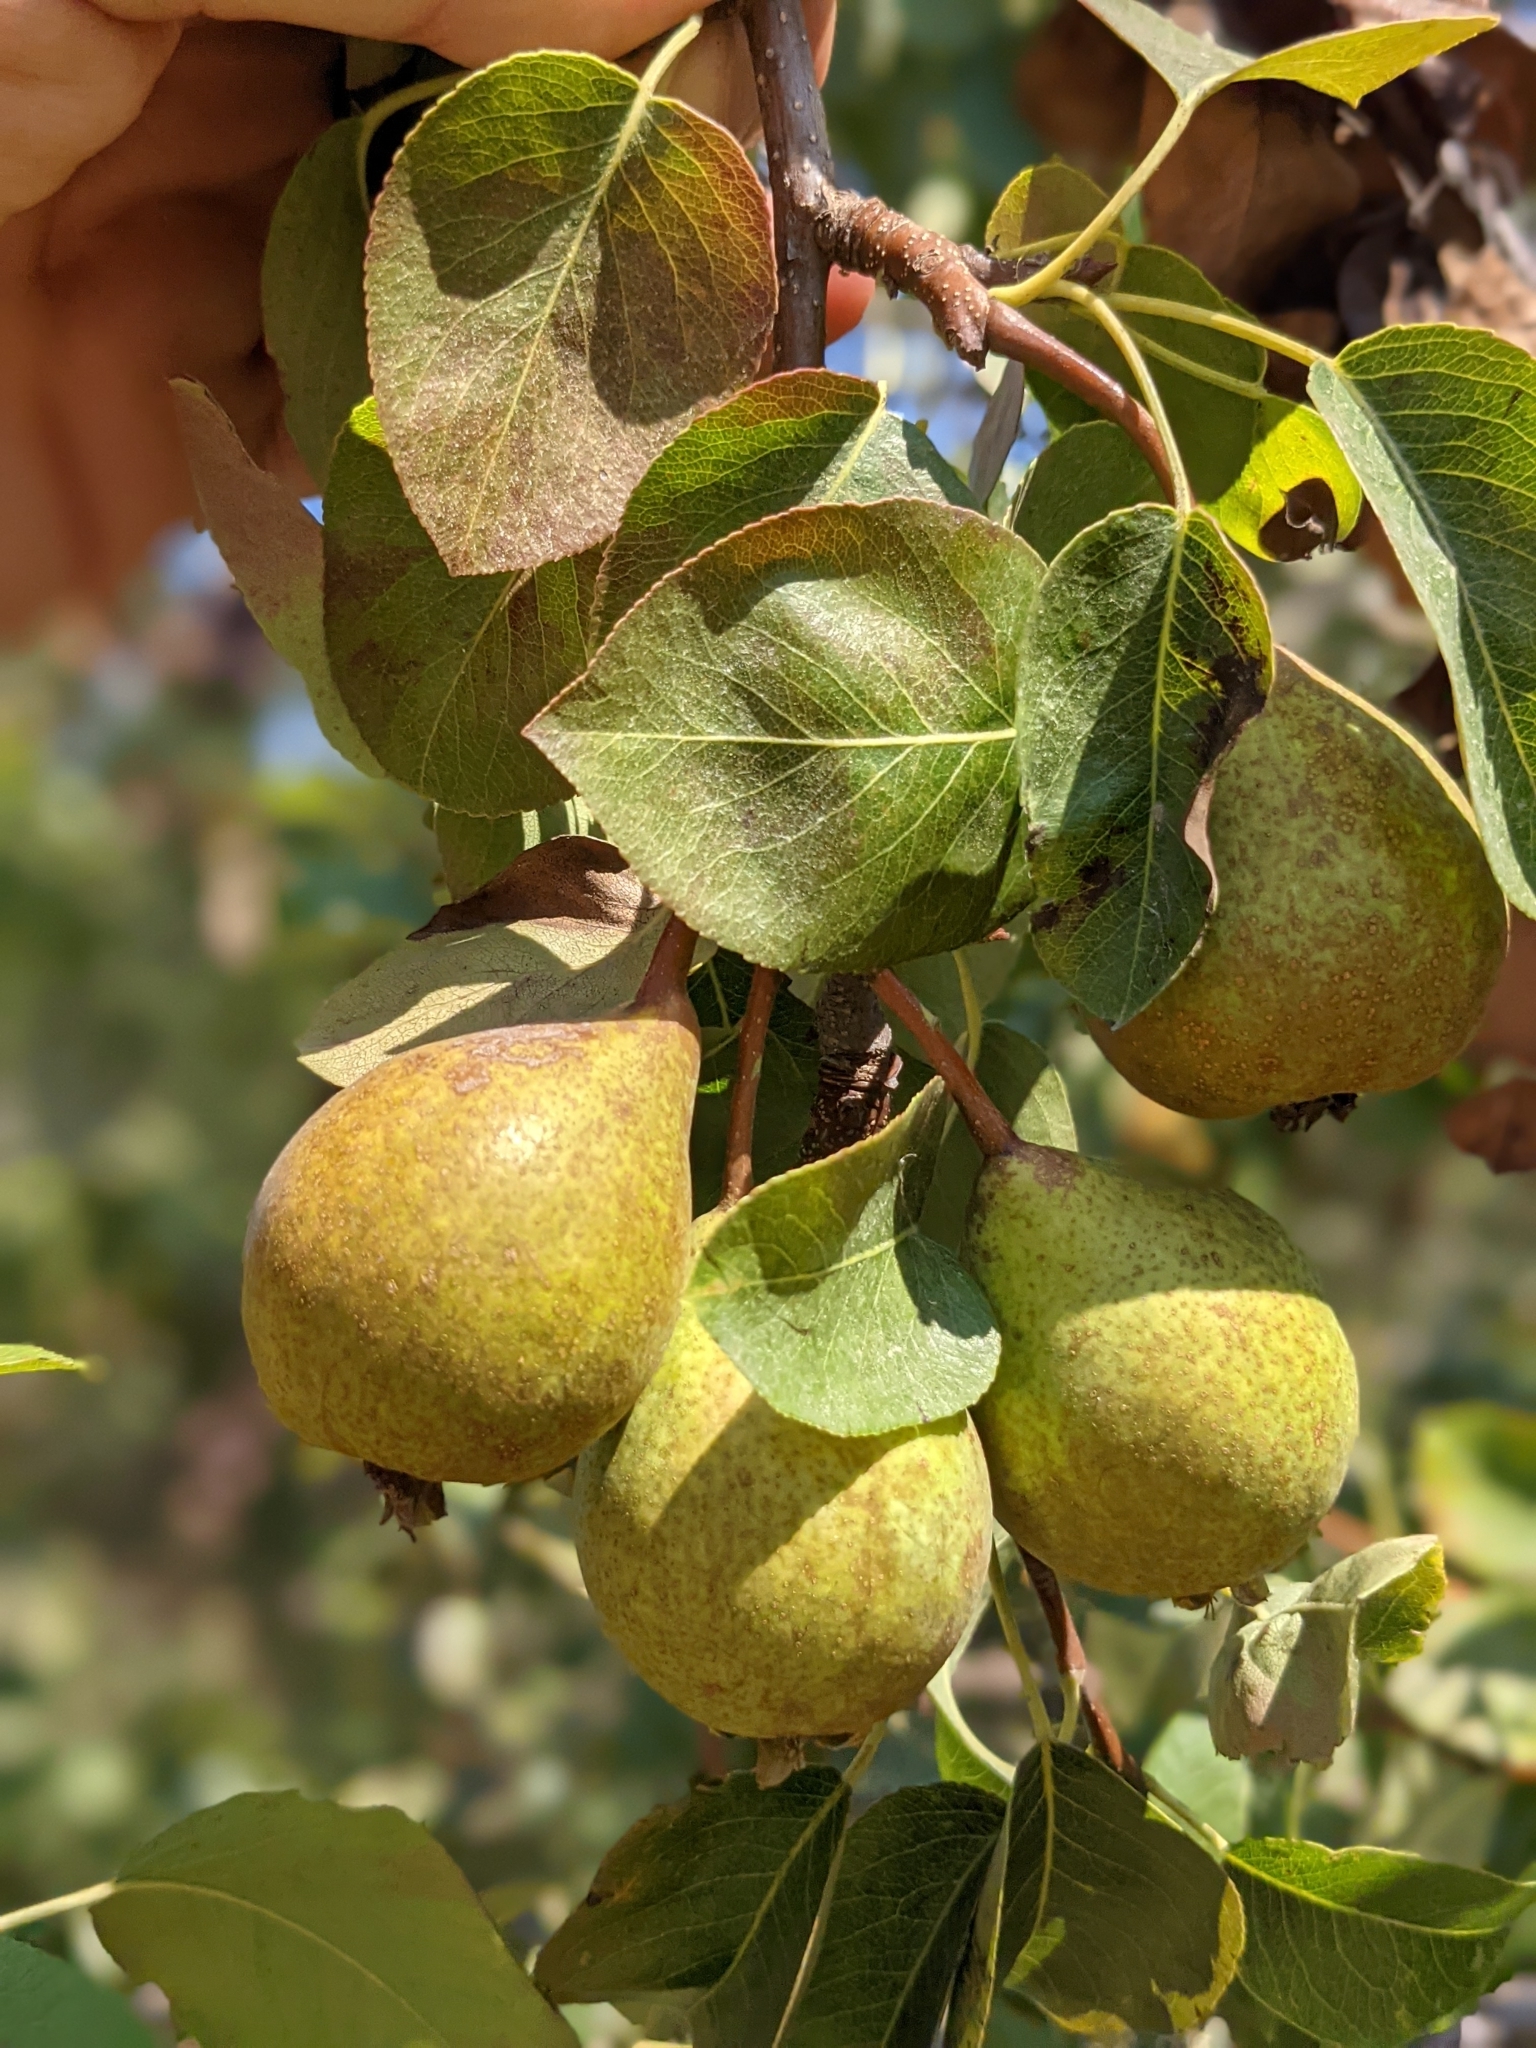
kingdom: Plantae
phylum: Tracheophyta
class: Magnoliopsida
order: Rosales
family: Rosaceae
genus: Pyrus
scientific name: Pyrus communis
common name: Pear
